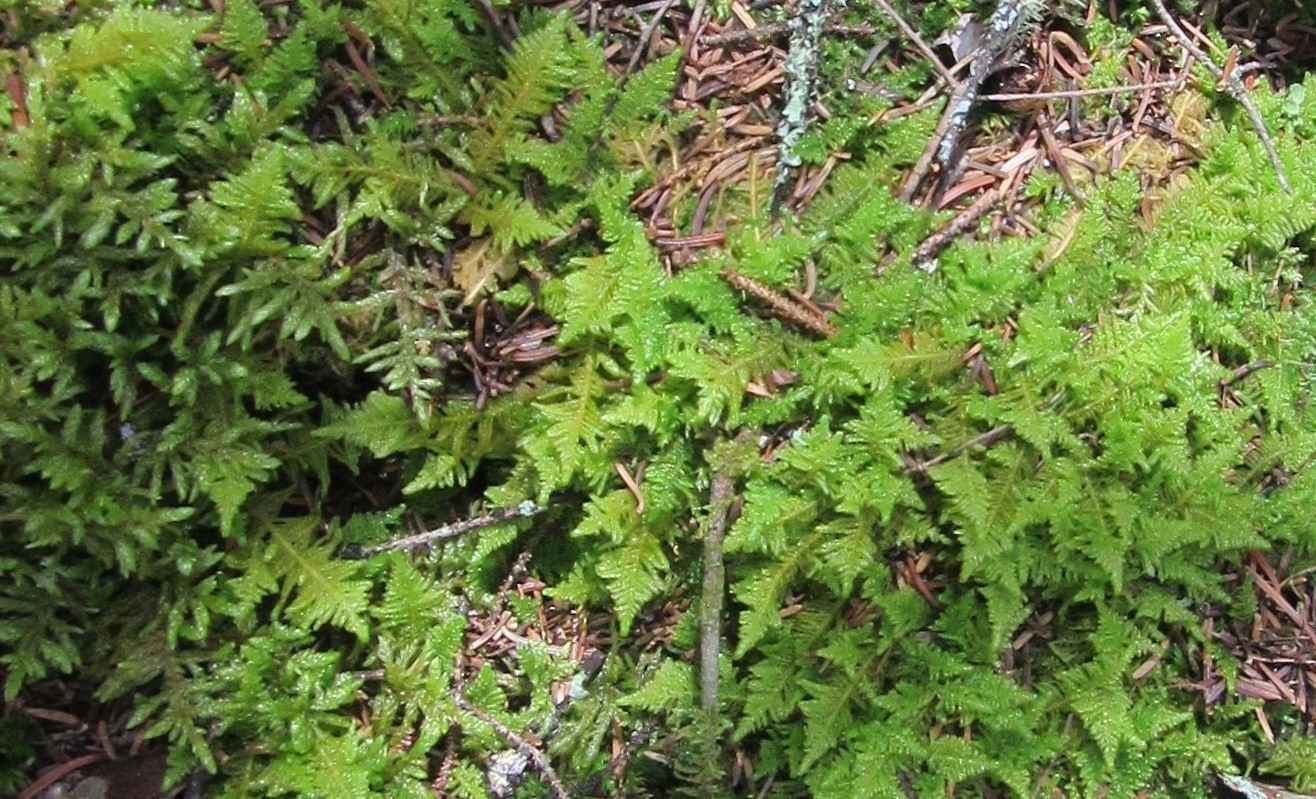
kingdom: Plantae
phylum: Bryophyta
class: Bryopsida
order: Hypnales
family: Pylaisiaceae
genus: Ptilium
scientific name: Ptilium crista-castrensis
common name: Knight's plume moss
